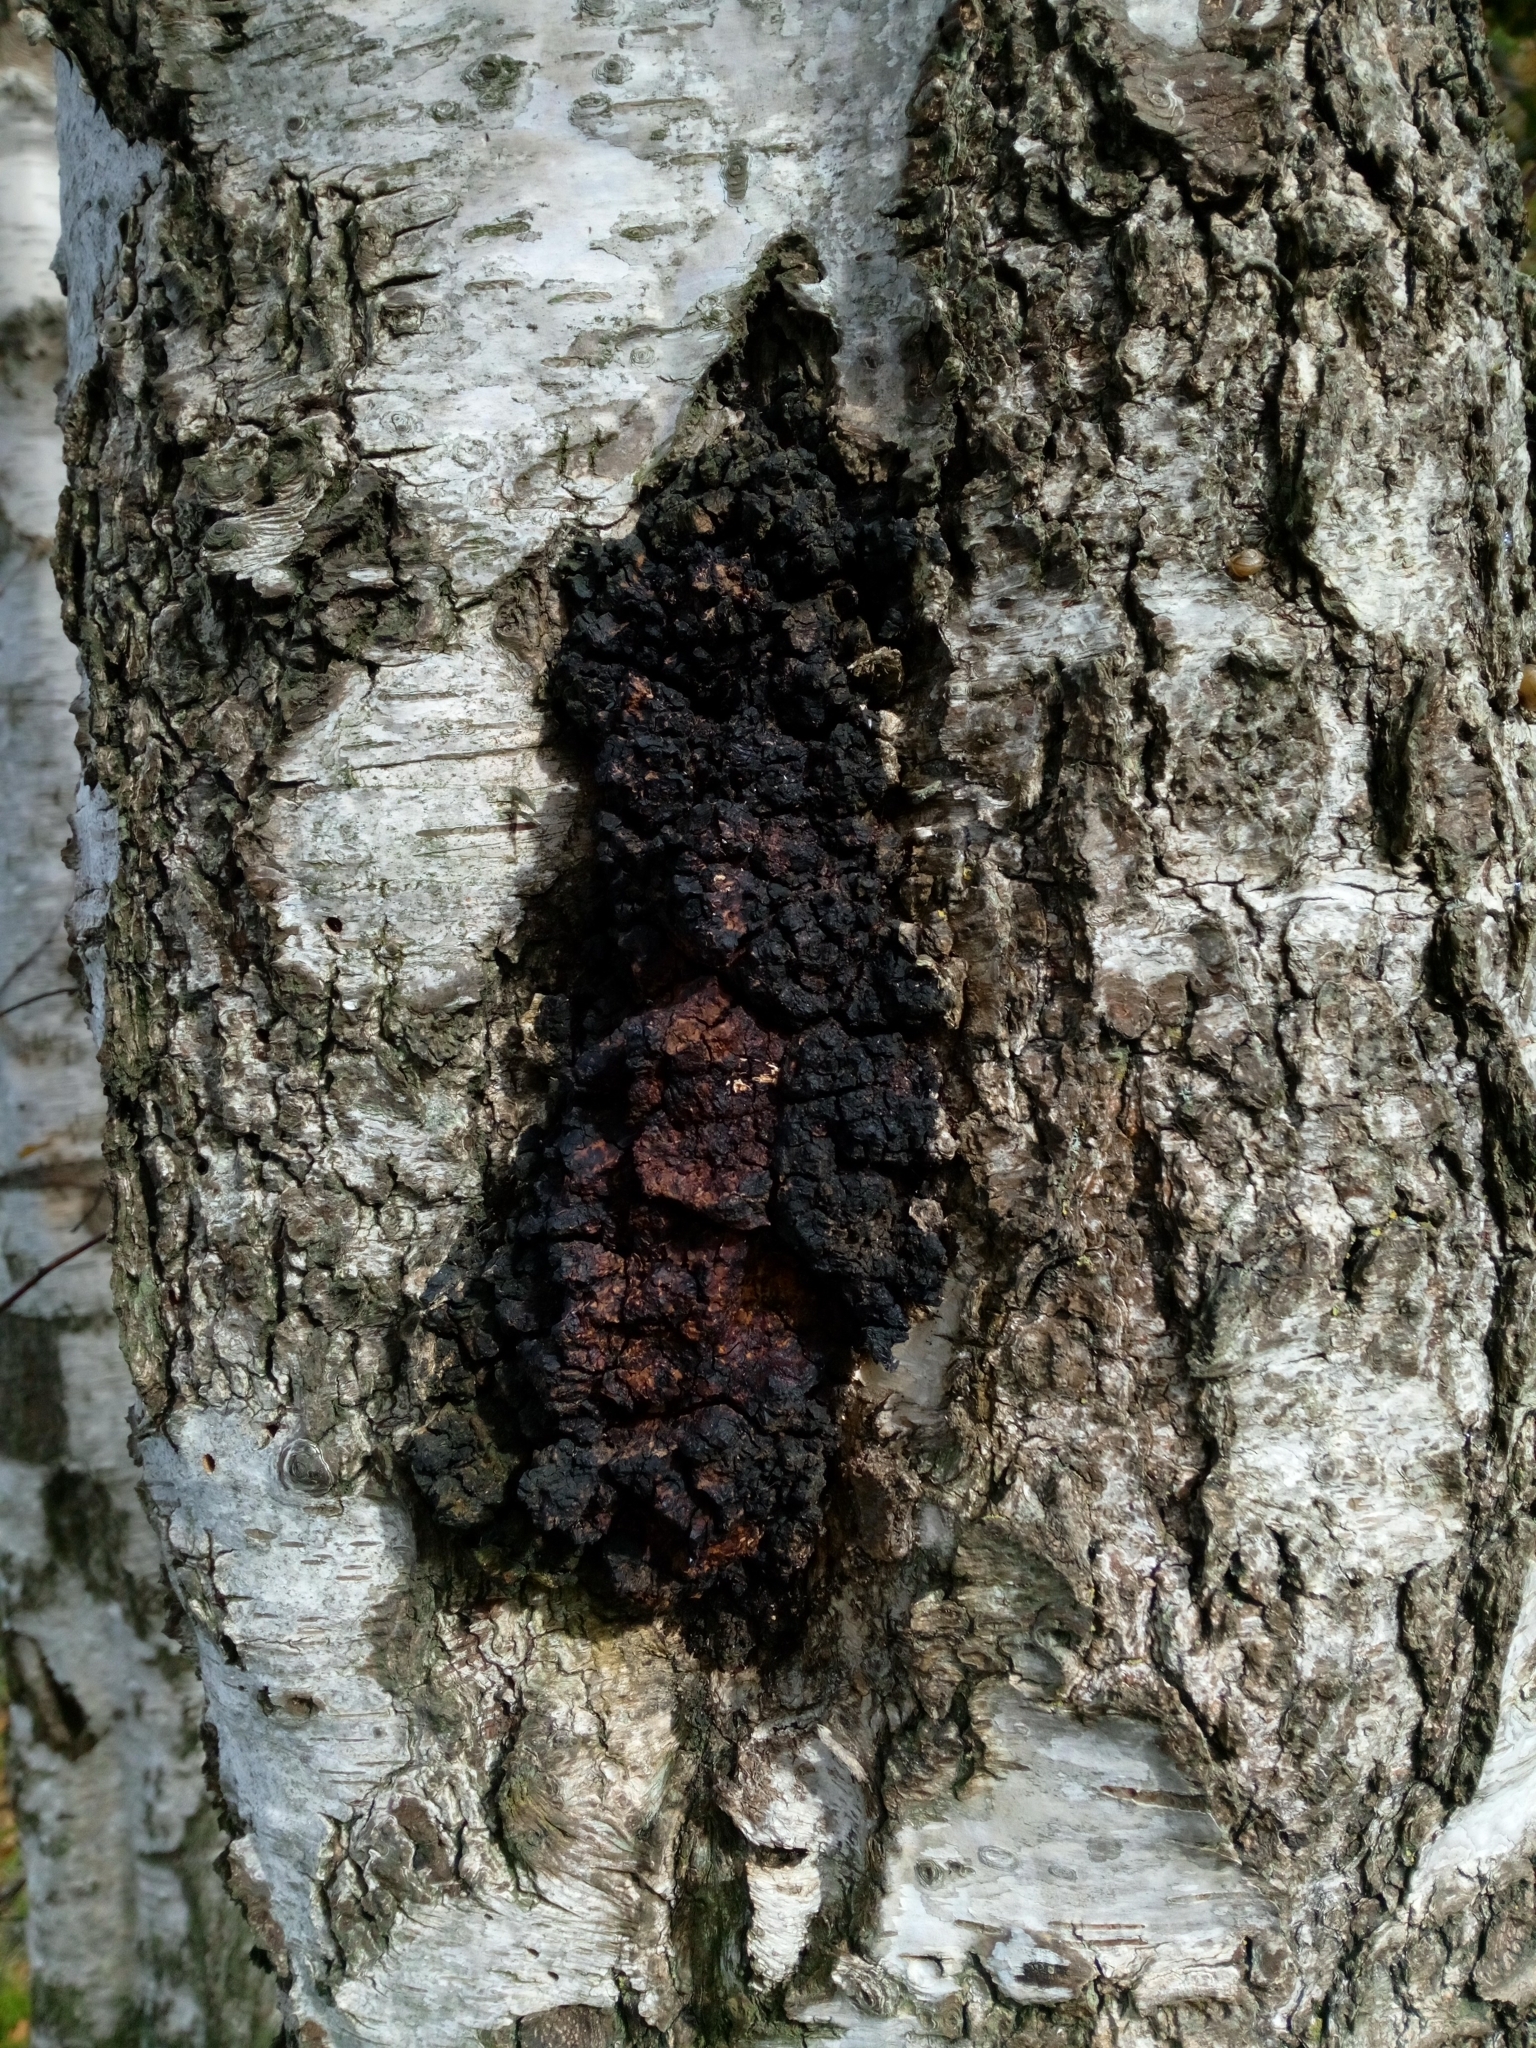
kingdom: Fungi
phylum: Basidiomycota
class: Agaricomycetes
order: Hymenochaetales
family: Hymenochaetaceae
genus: Inonotus
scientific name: Inonotus obliquus
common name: Chaga
